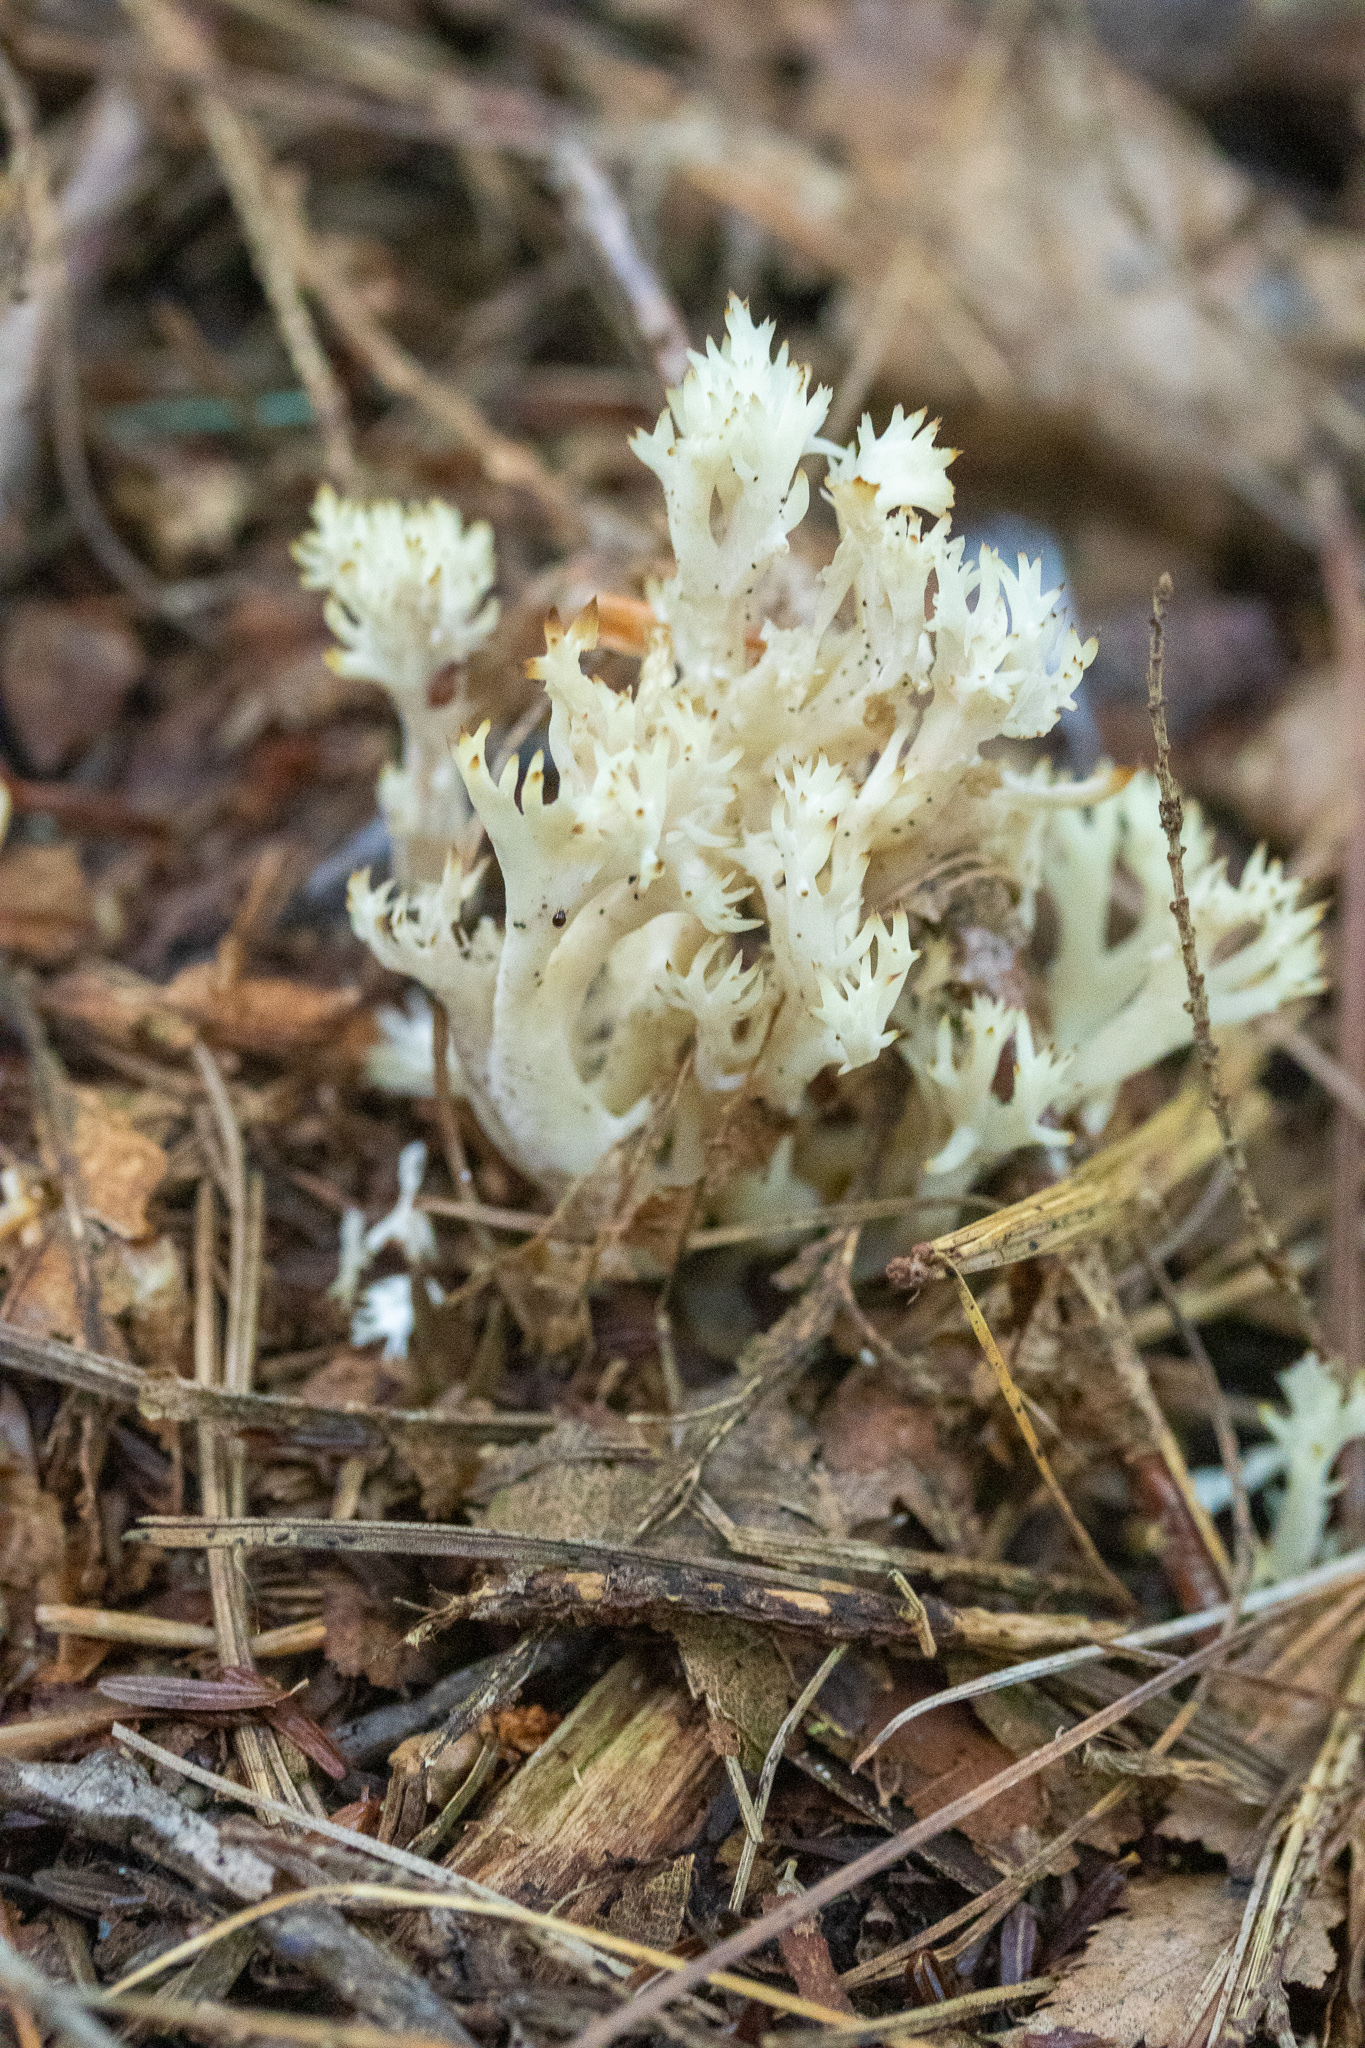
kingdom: Fungi
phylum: Basidiomycota
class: Agaricomycetes
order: Cantharellales
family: Hydnaceae
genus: Clavulina
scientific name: Clavulina coralloides
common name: Crested coral
